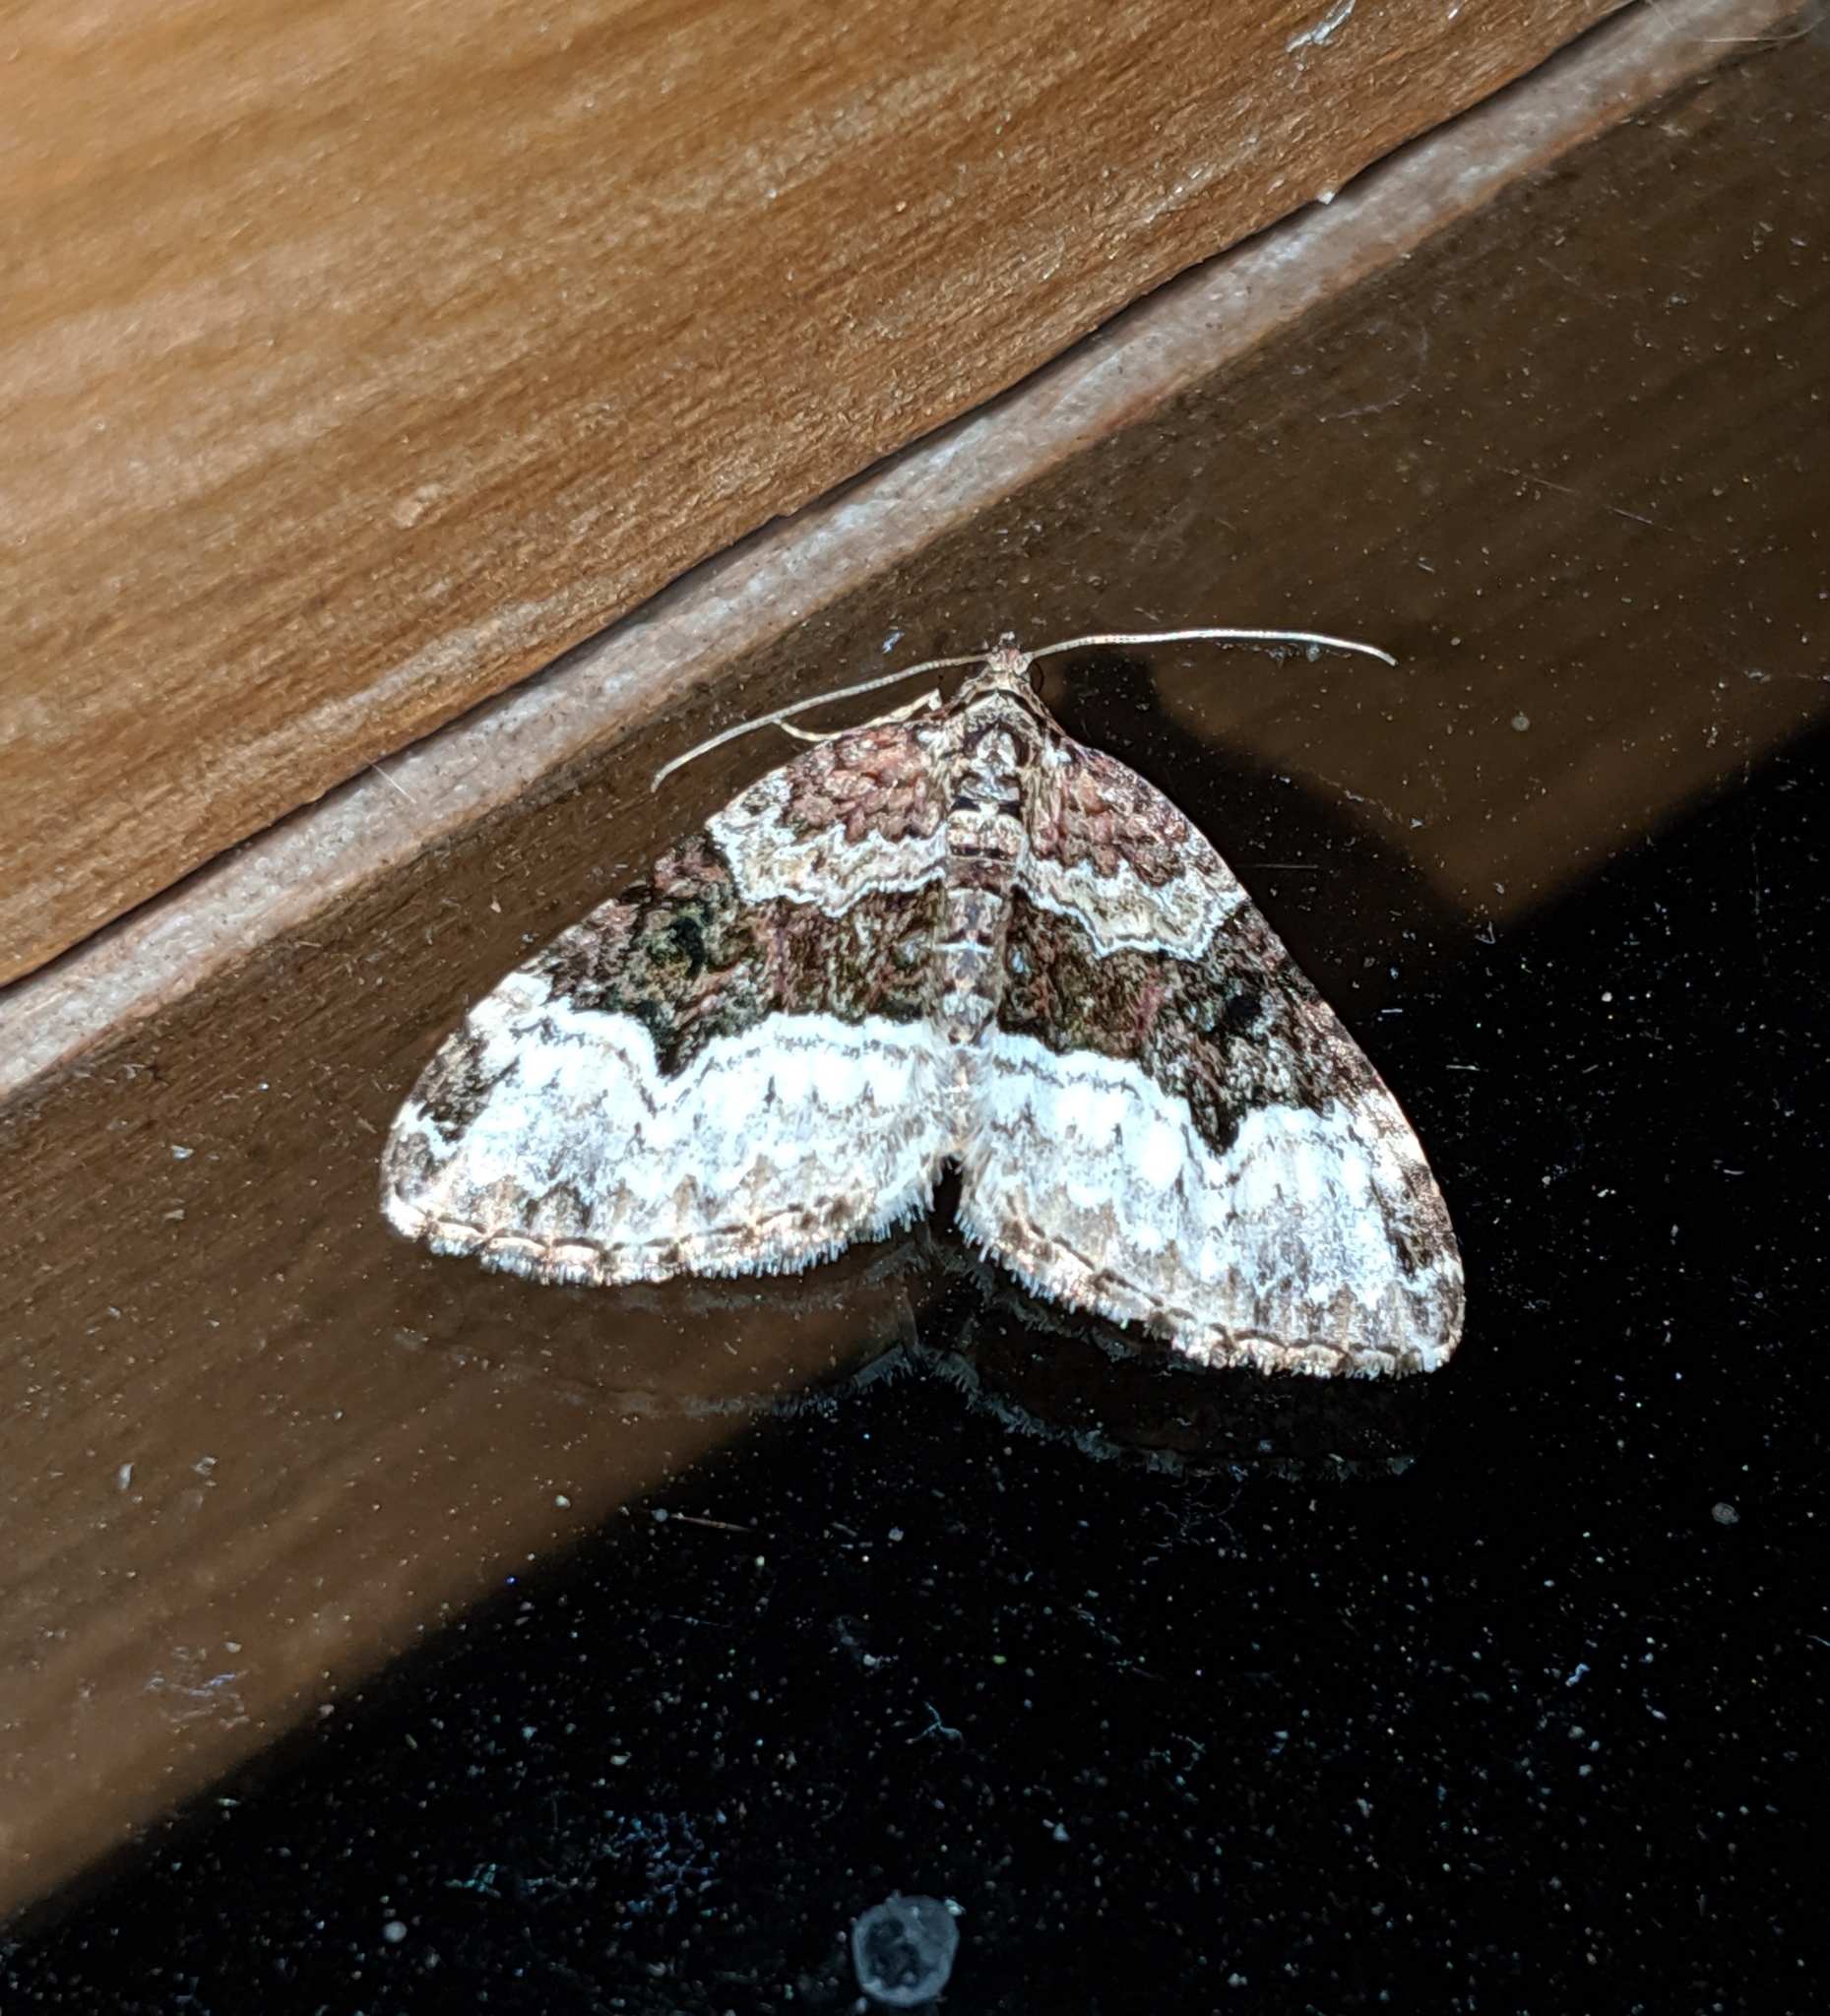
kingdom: Animalia
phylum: Arthropoda
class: Insecta
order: Lepidoptera
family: Geometridae
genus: Euphyia
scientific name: Euphyia intermediata
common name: Sharp-angled carpet
